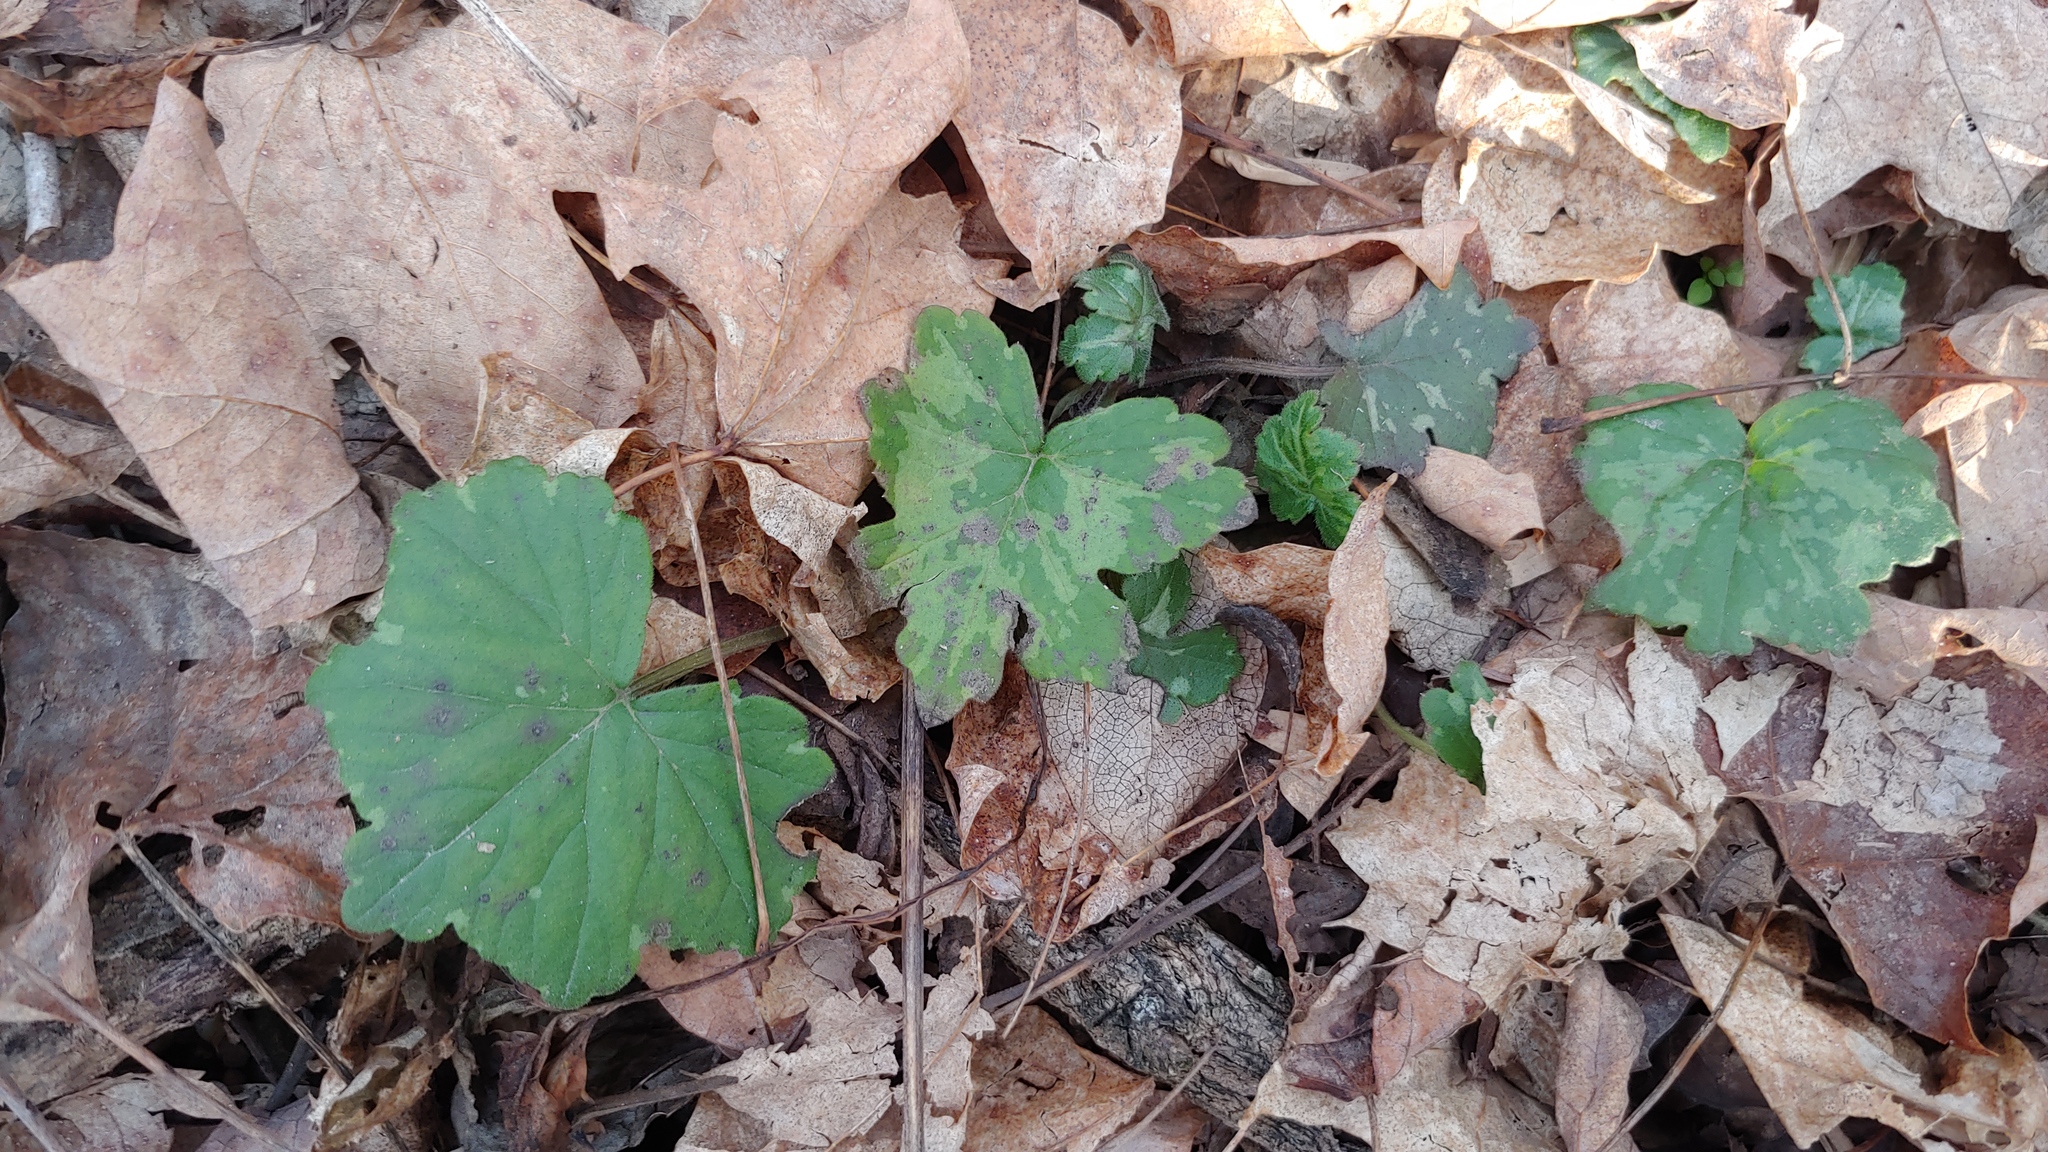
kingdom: Plantae
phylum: Tracheophyta
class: Magnoliopsida
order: Boraginales
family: Hydrophyllaceae
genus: Hydrophyllum
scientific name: Hydrophyllum appendiculatum
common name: Appendaged waterleaf
